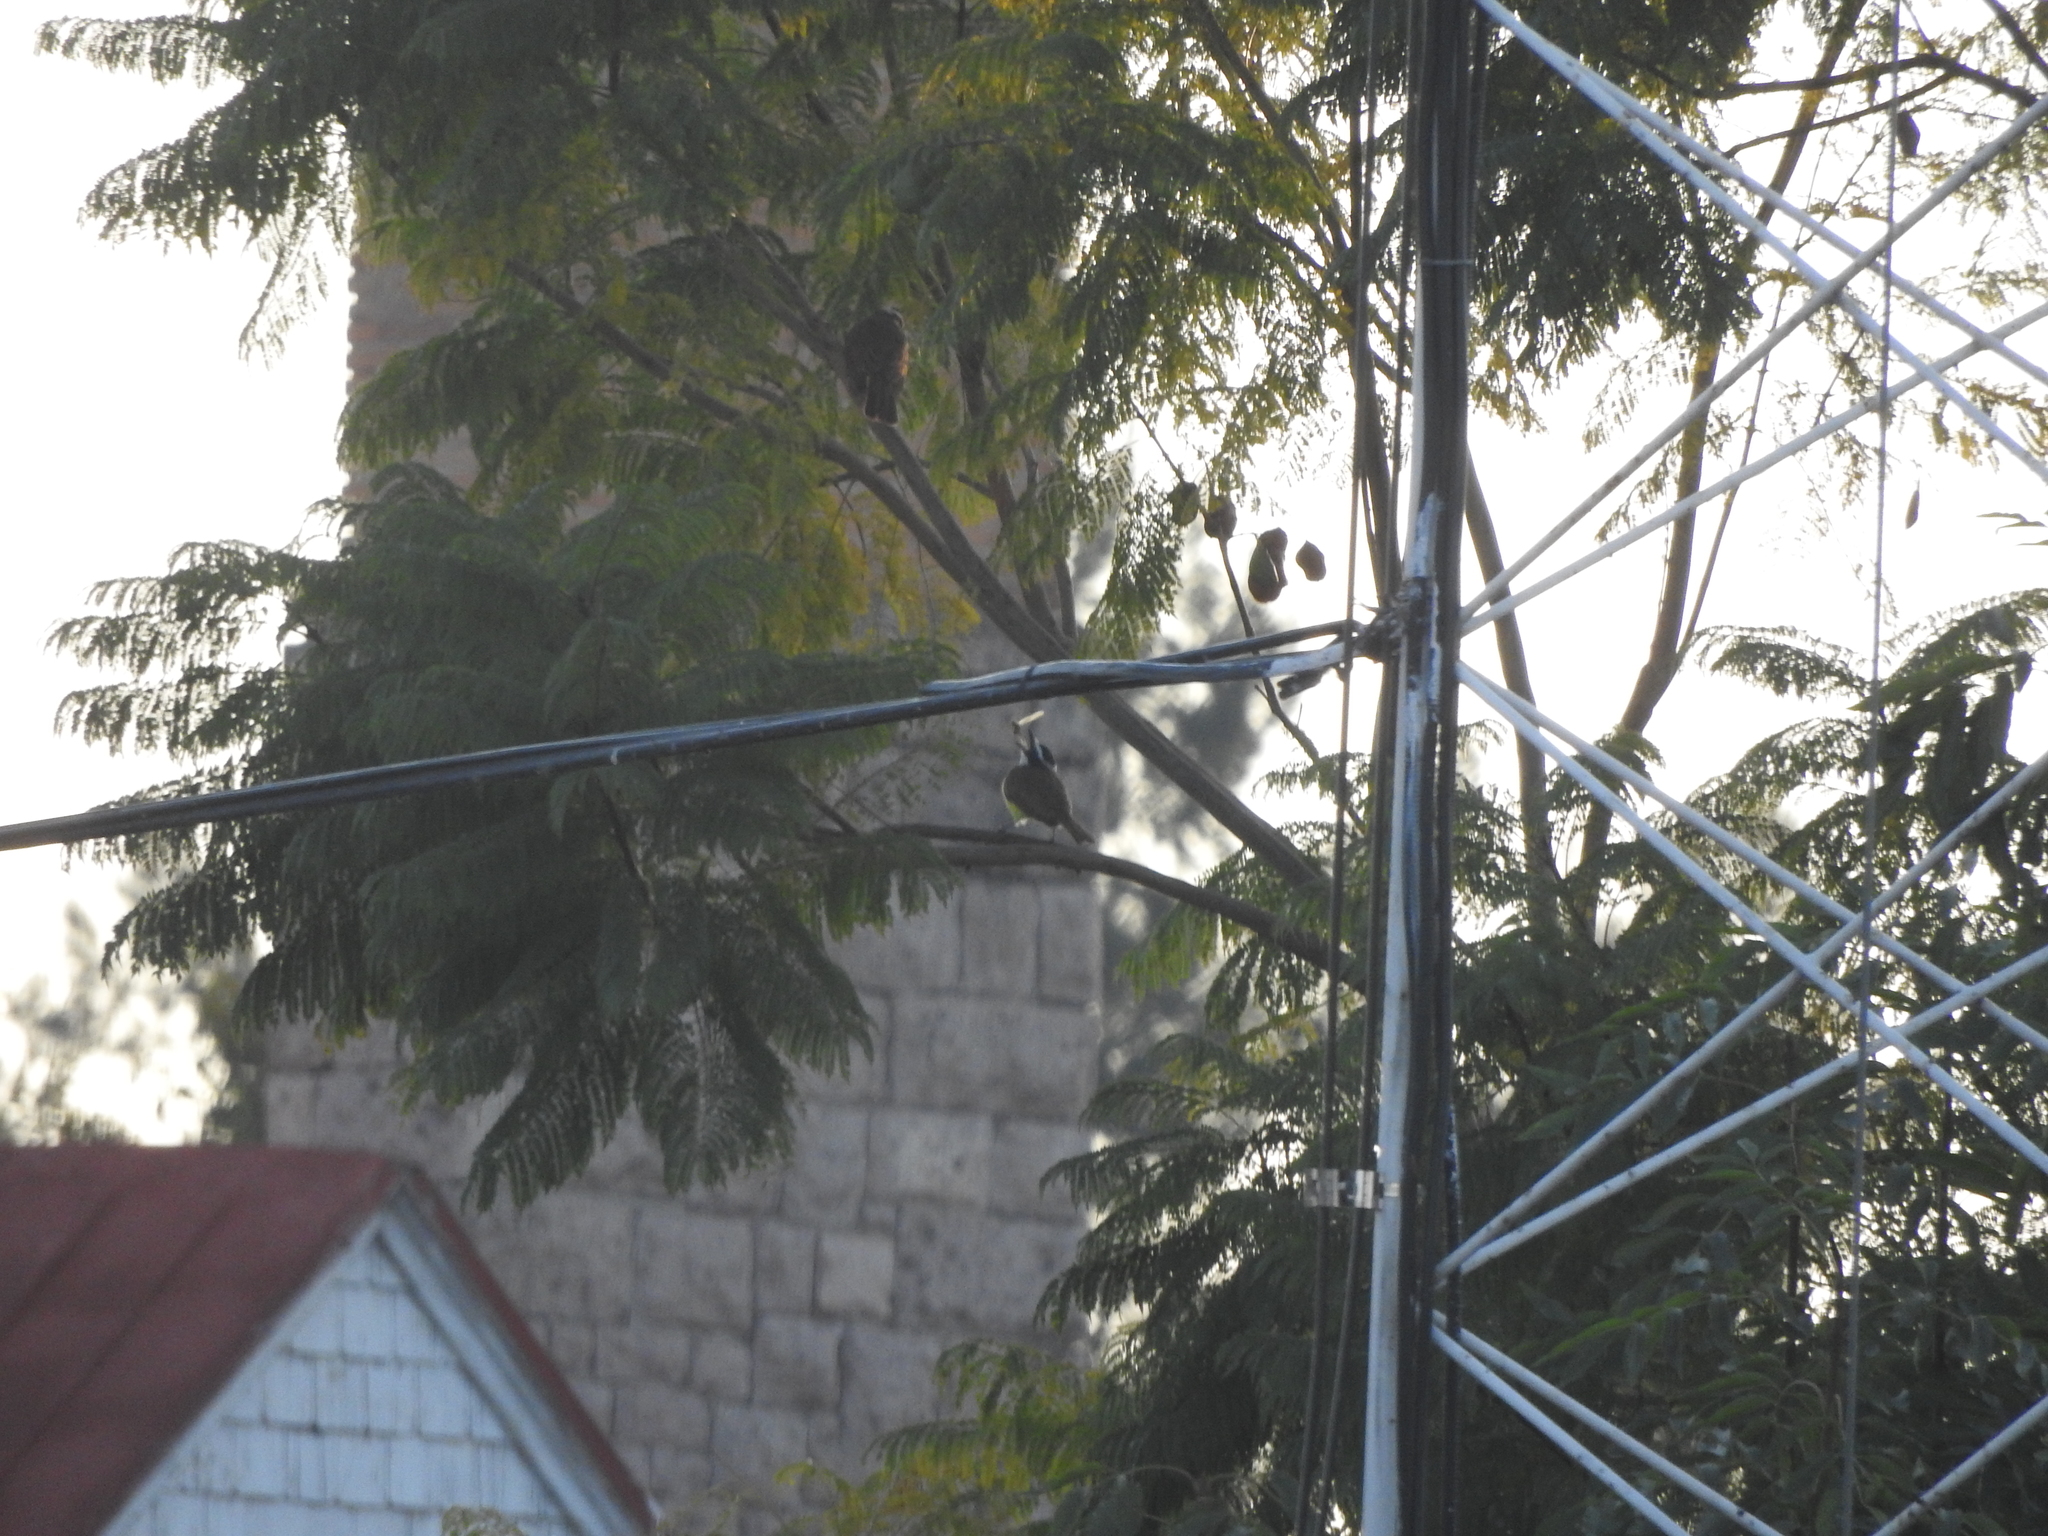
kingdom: Animalia
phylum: Chordata
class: Aves
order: Passeriformes
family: Tyrannidae
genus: Pitangus
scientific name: Pitangus sulphuratus
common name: Great kiskadee
